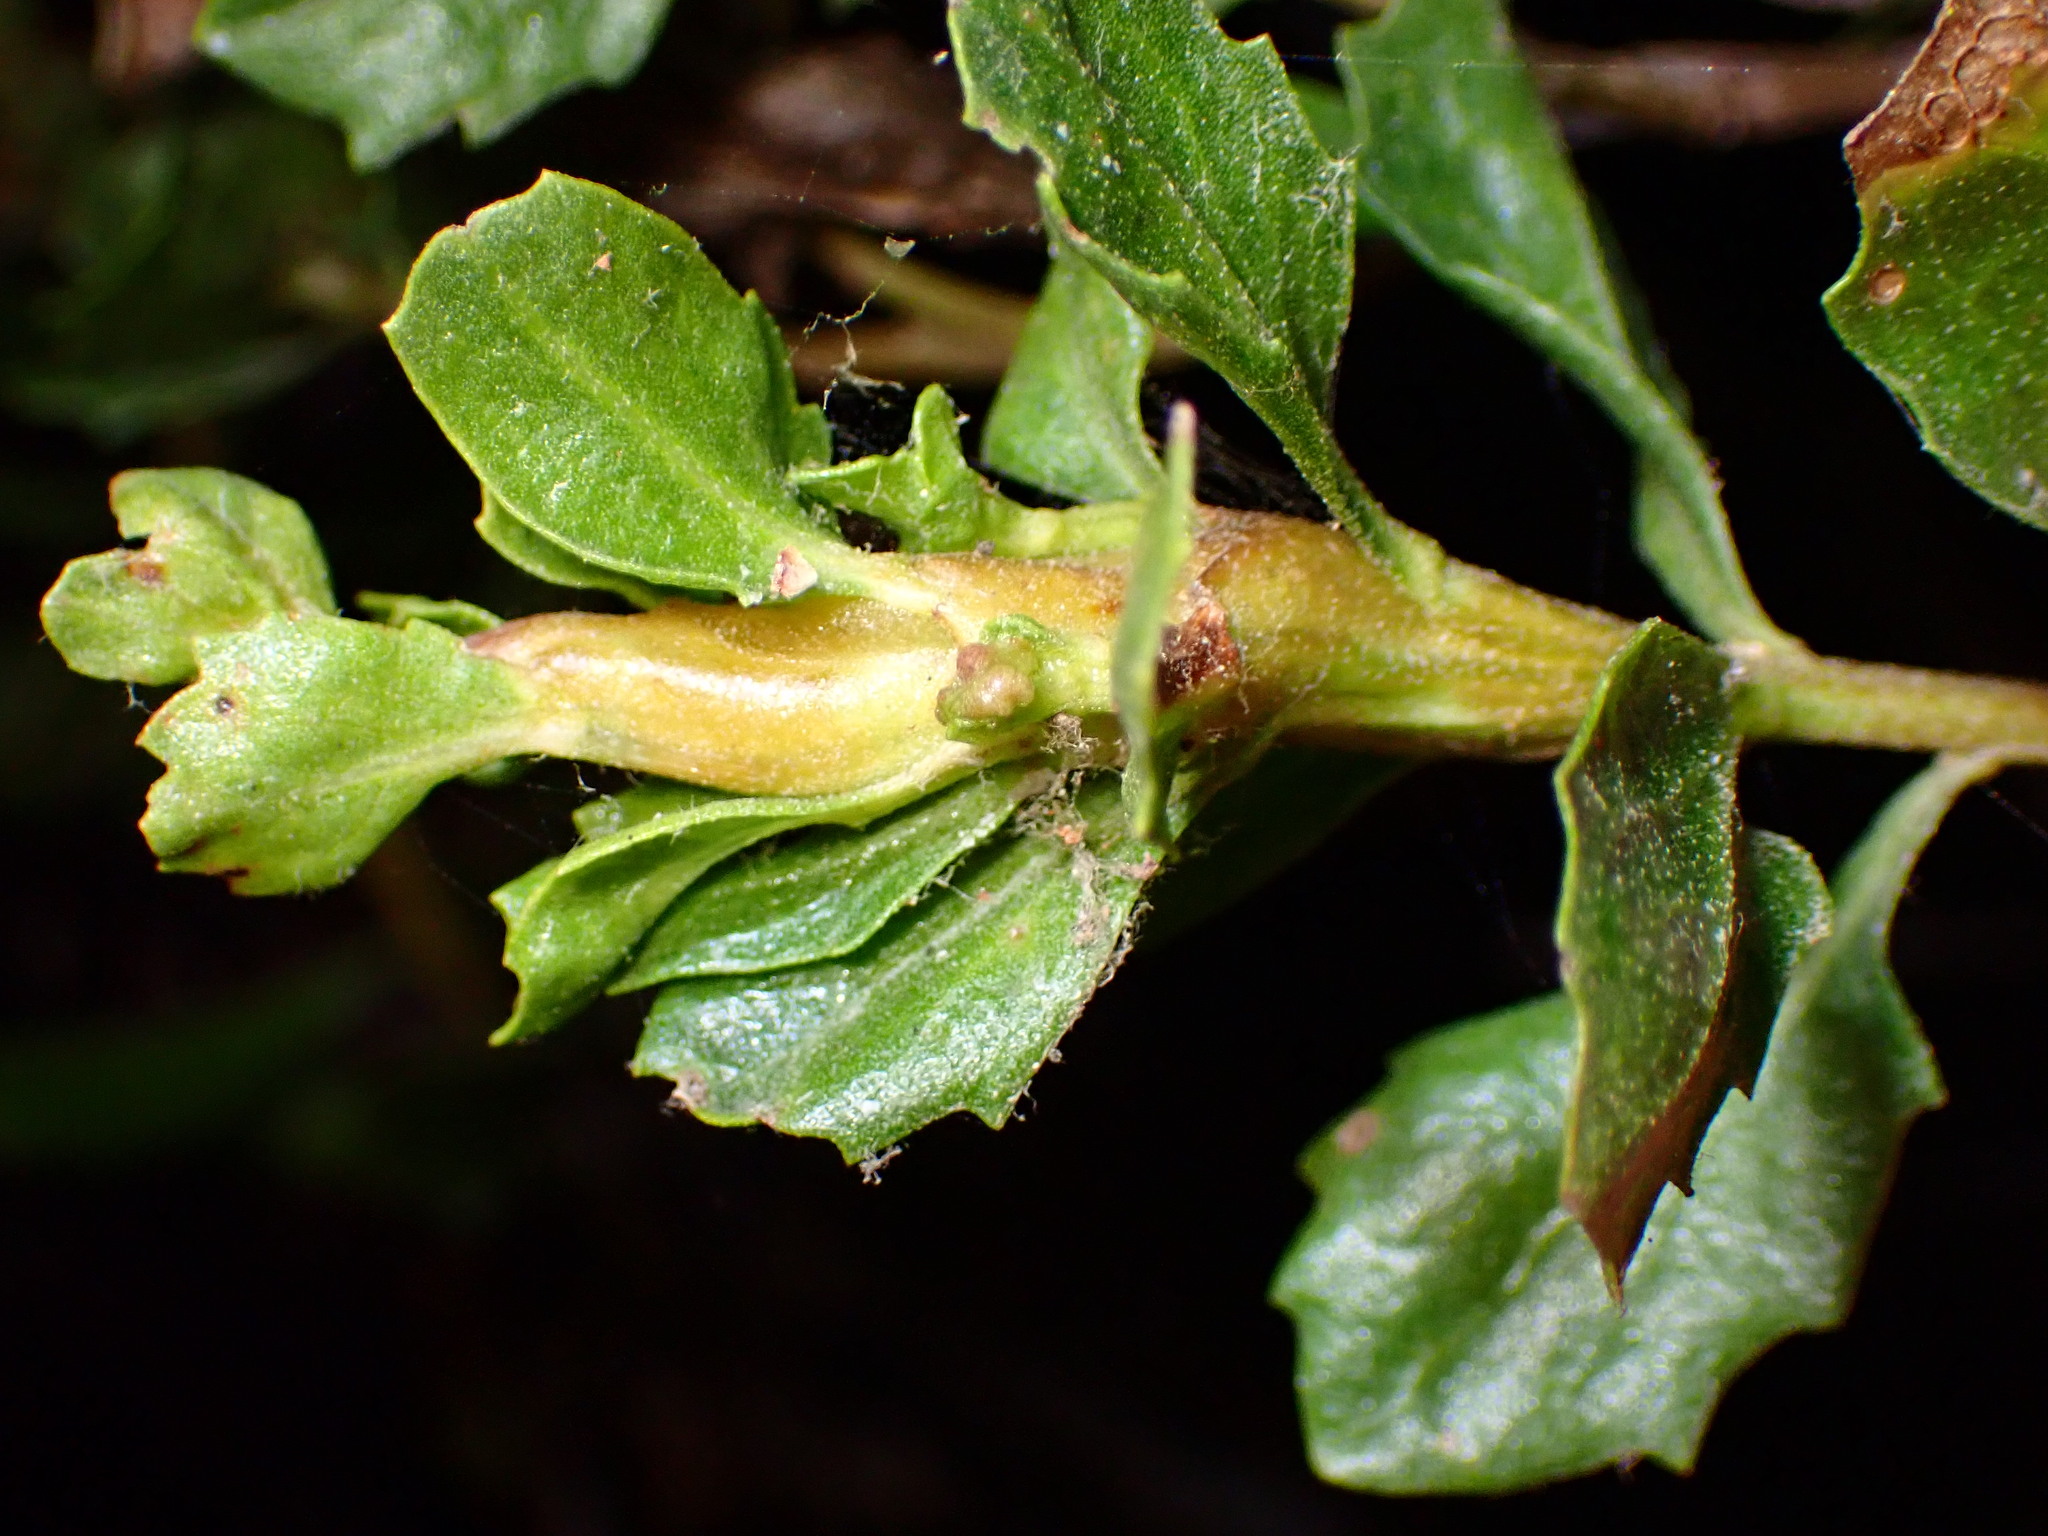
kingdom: Animalia
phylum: Arthropoda
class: Insecta
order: Lepidoptera
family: Gelechiidae
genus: Gnorimoschema
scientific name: Gnorimoschema baccharisella
